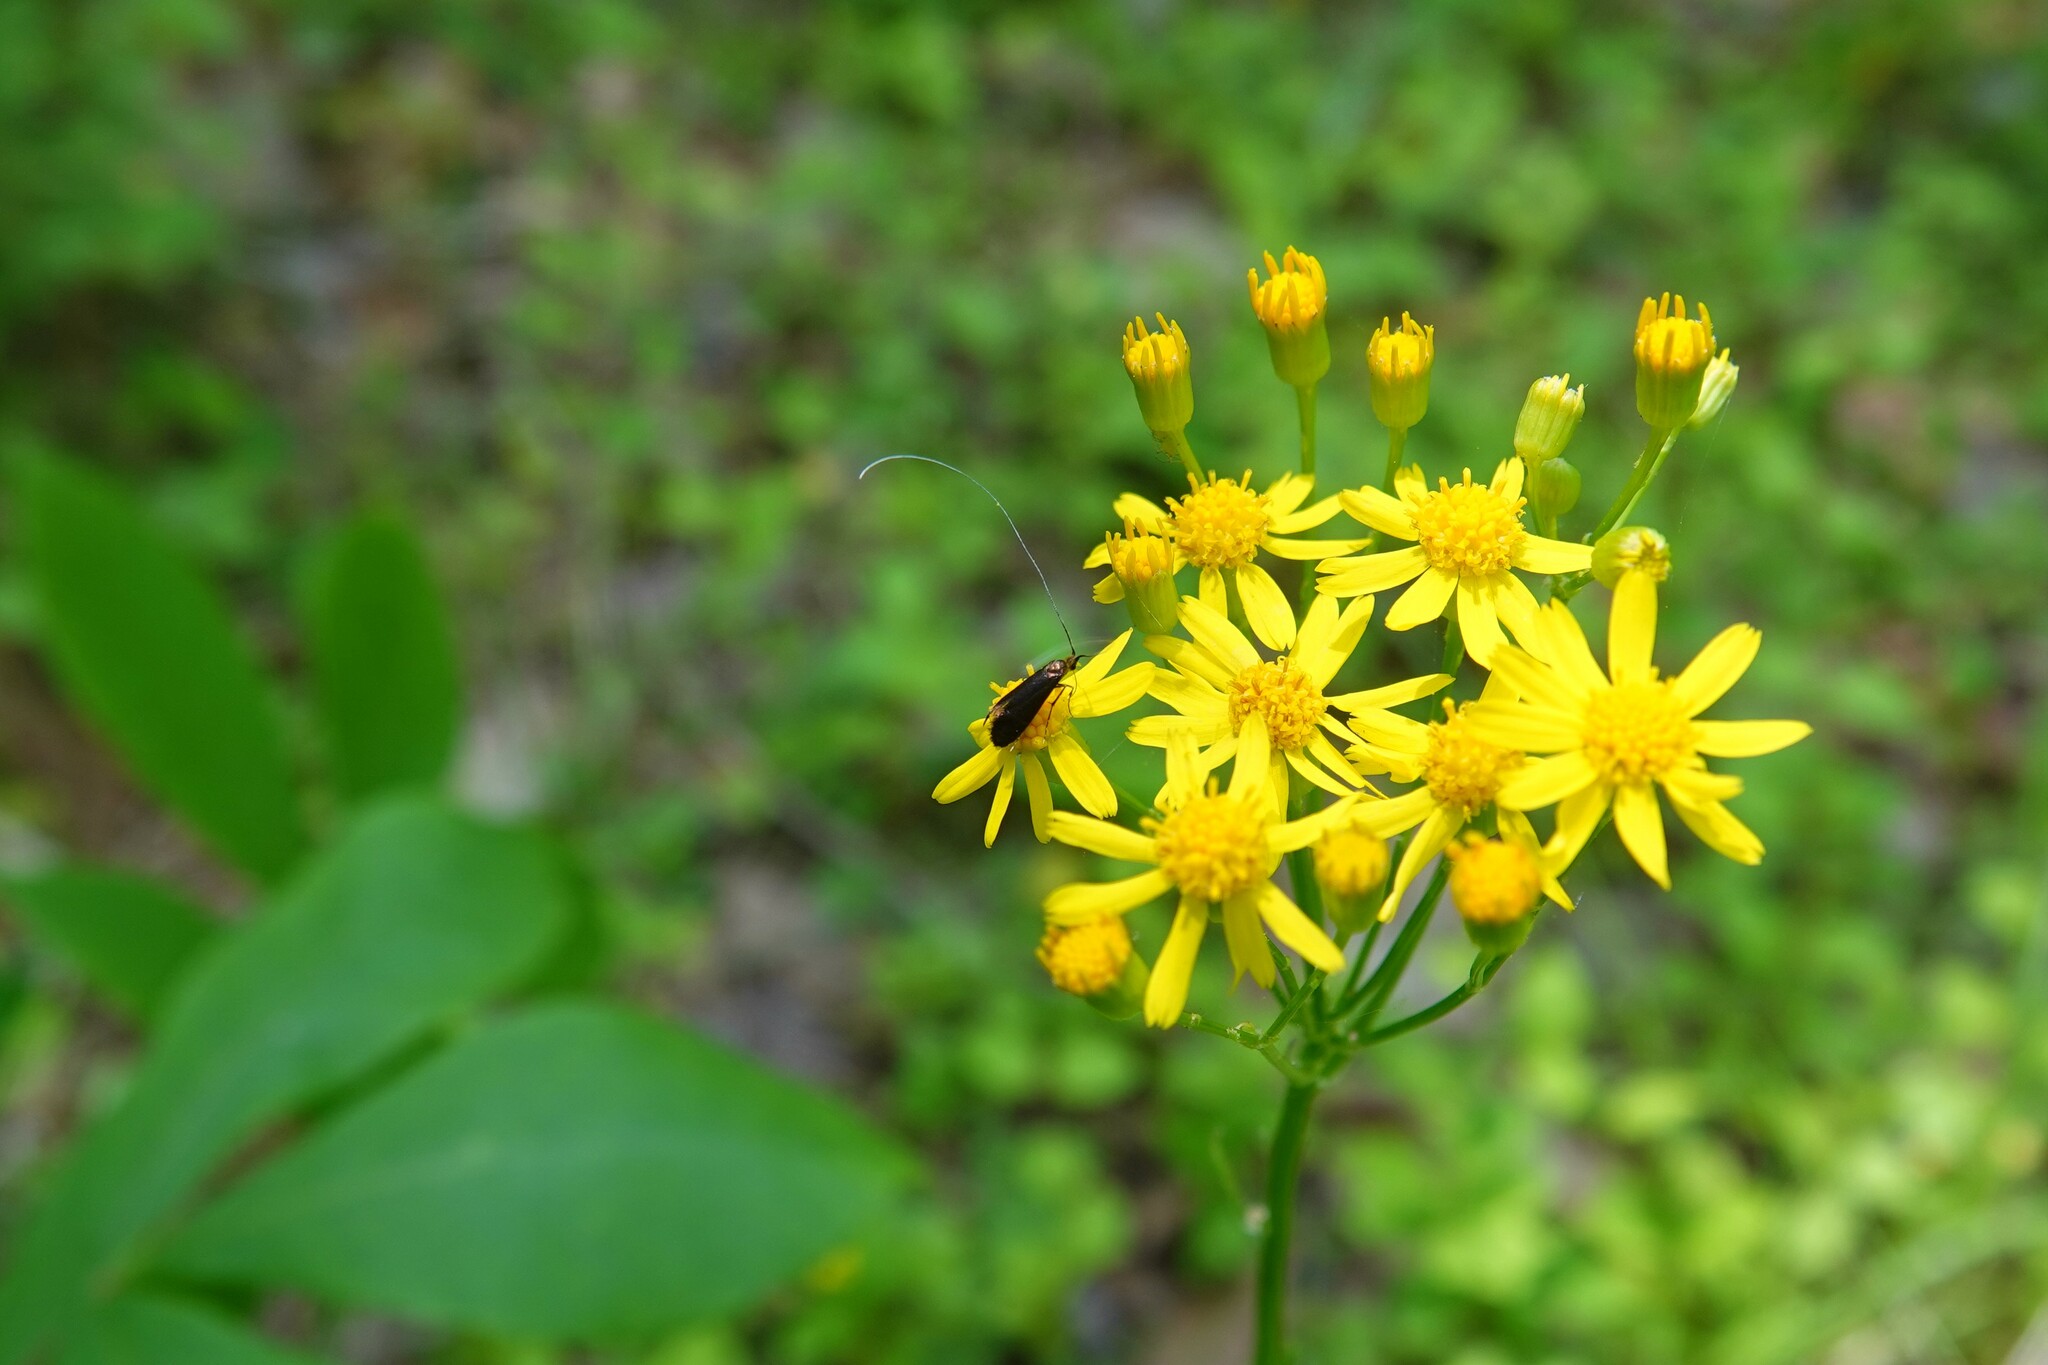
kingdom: Animalia
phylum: Arthropoda
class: Insecta
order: Lepidoptera
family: Adelidae
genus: Adela
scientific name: Adela caeruleella
